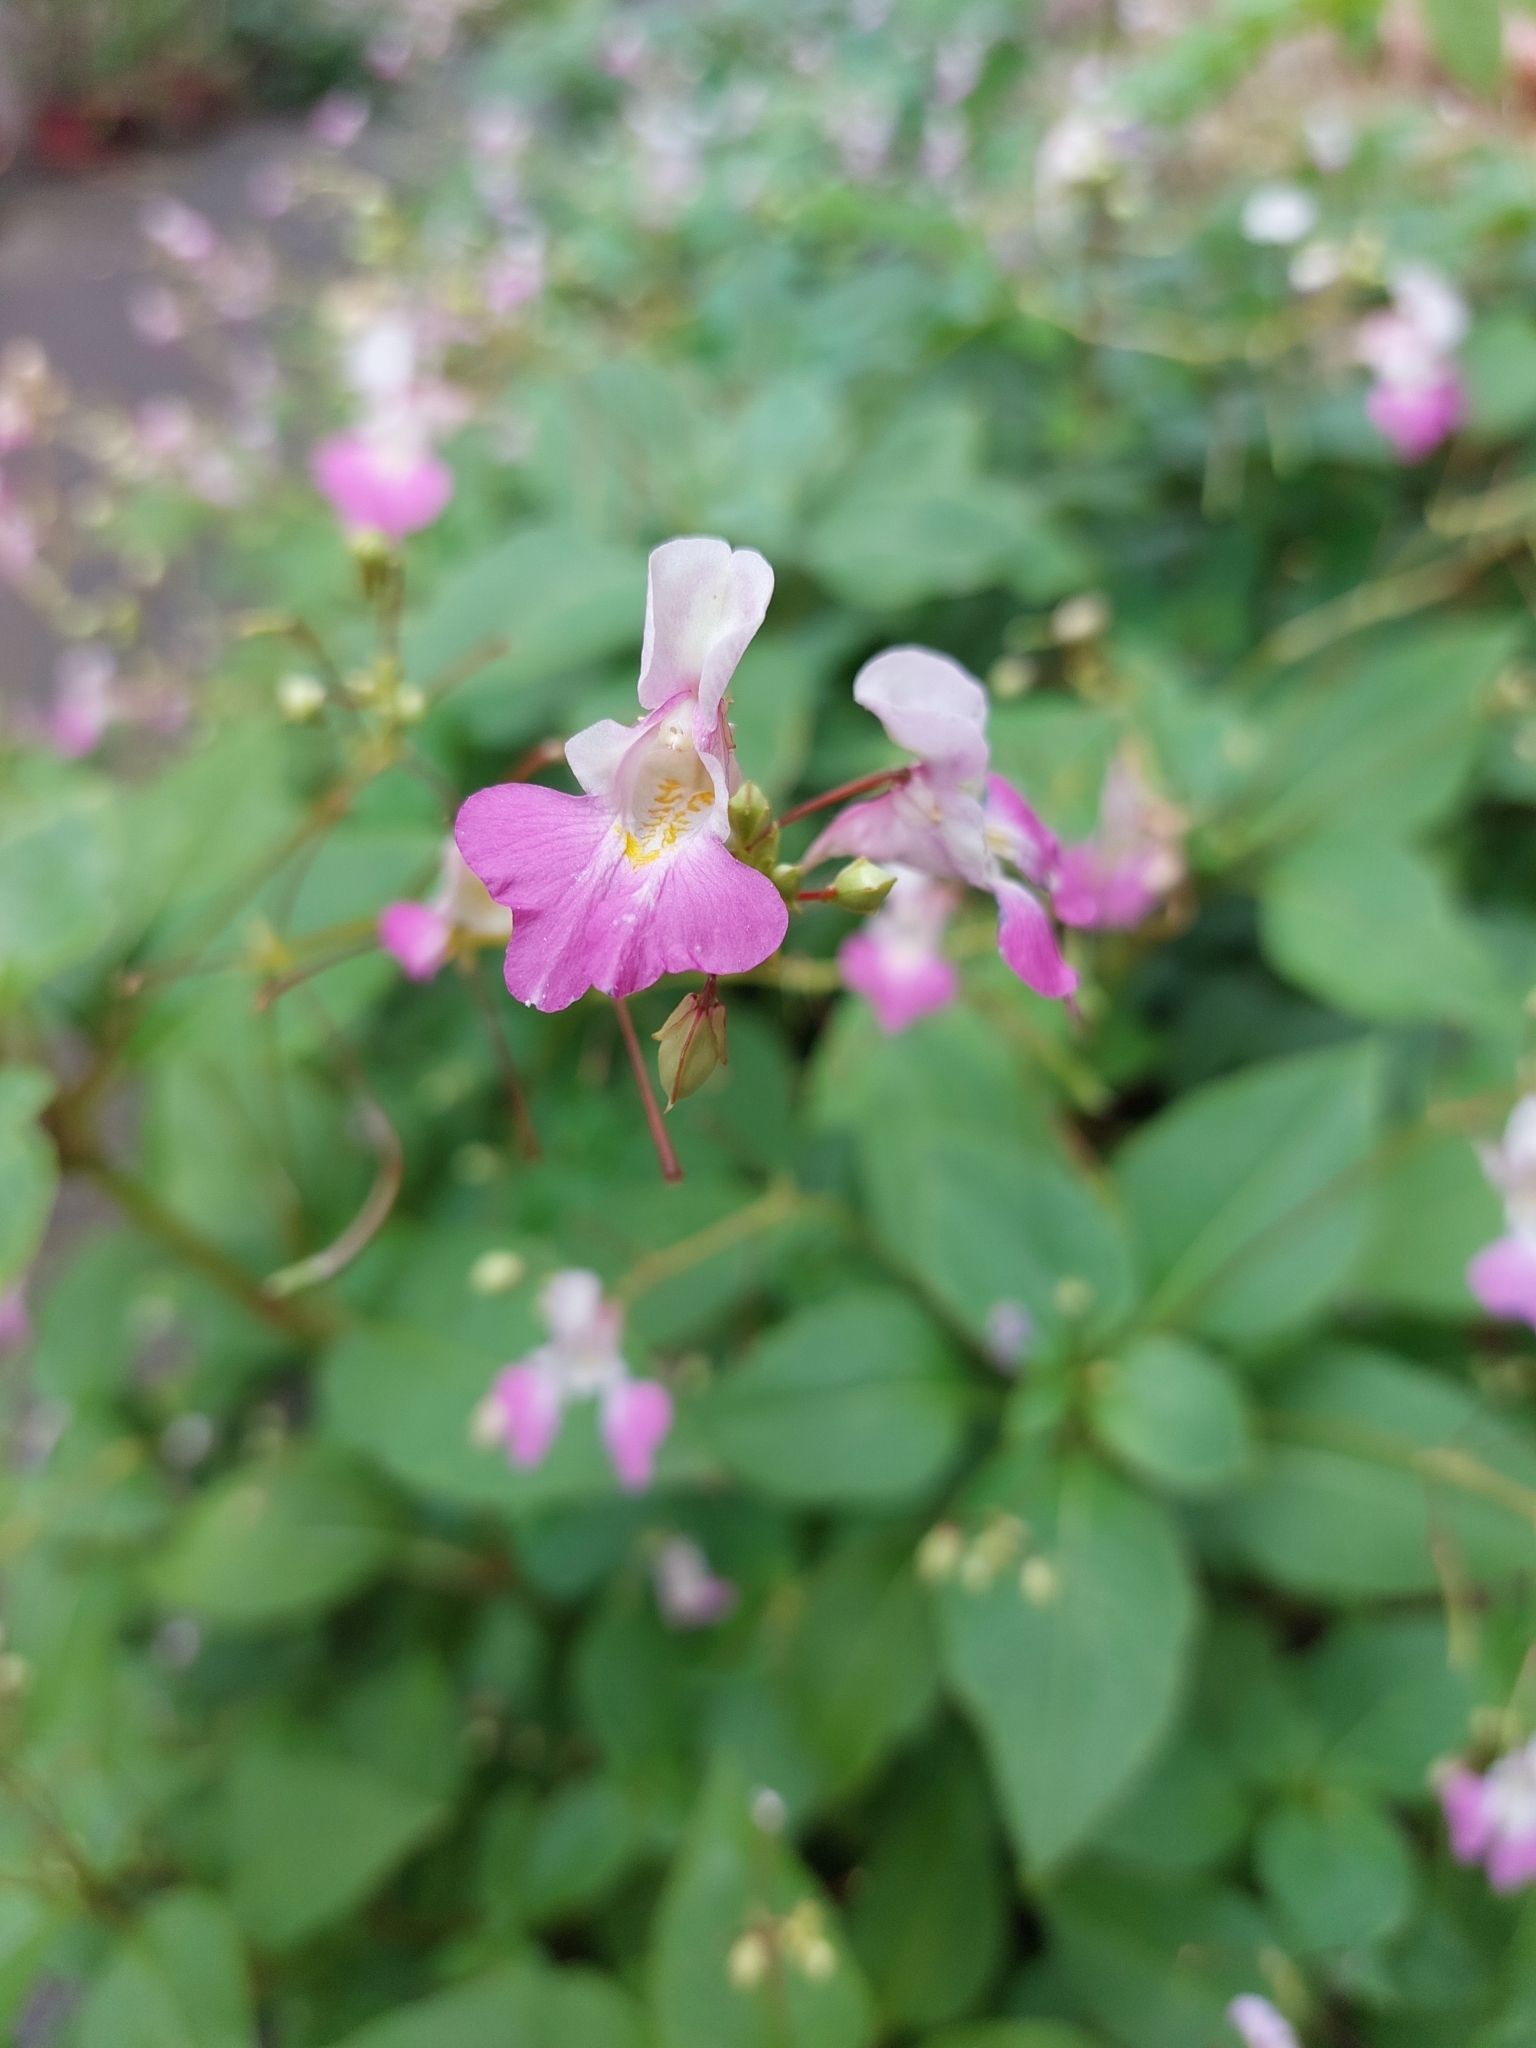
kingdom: Plantae
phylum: Tracheophyta
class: Magnoliopsida
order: Ericales
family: Balsaminaceae
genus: Impatiens
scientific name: Impatiens balfourii
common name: Balfour's touch-me-not
